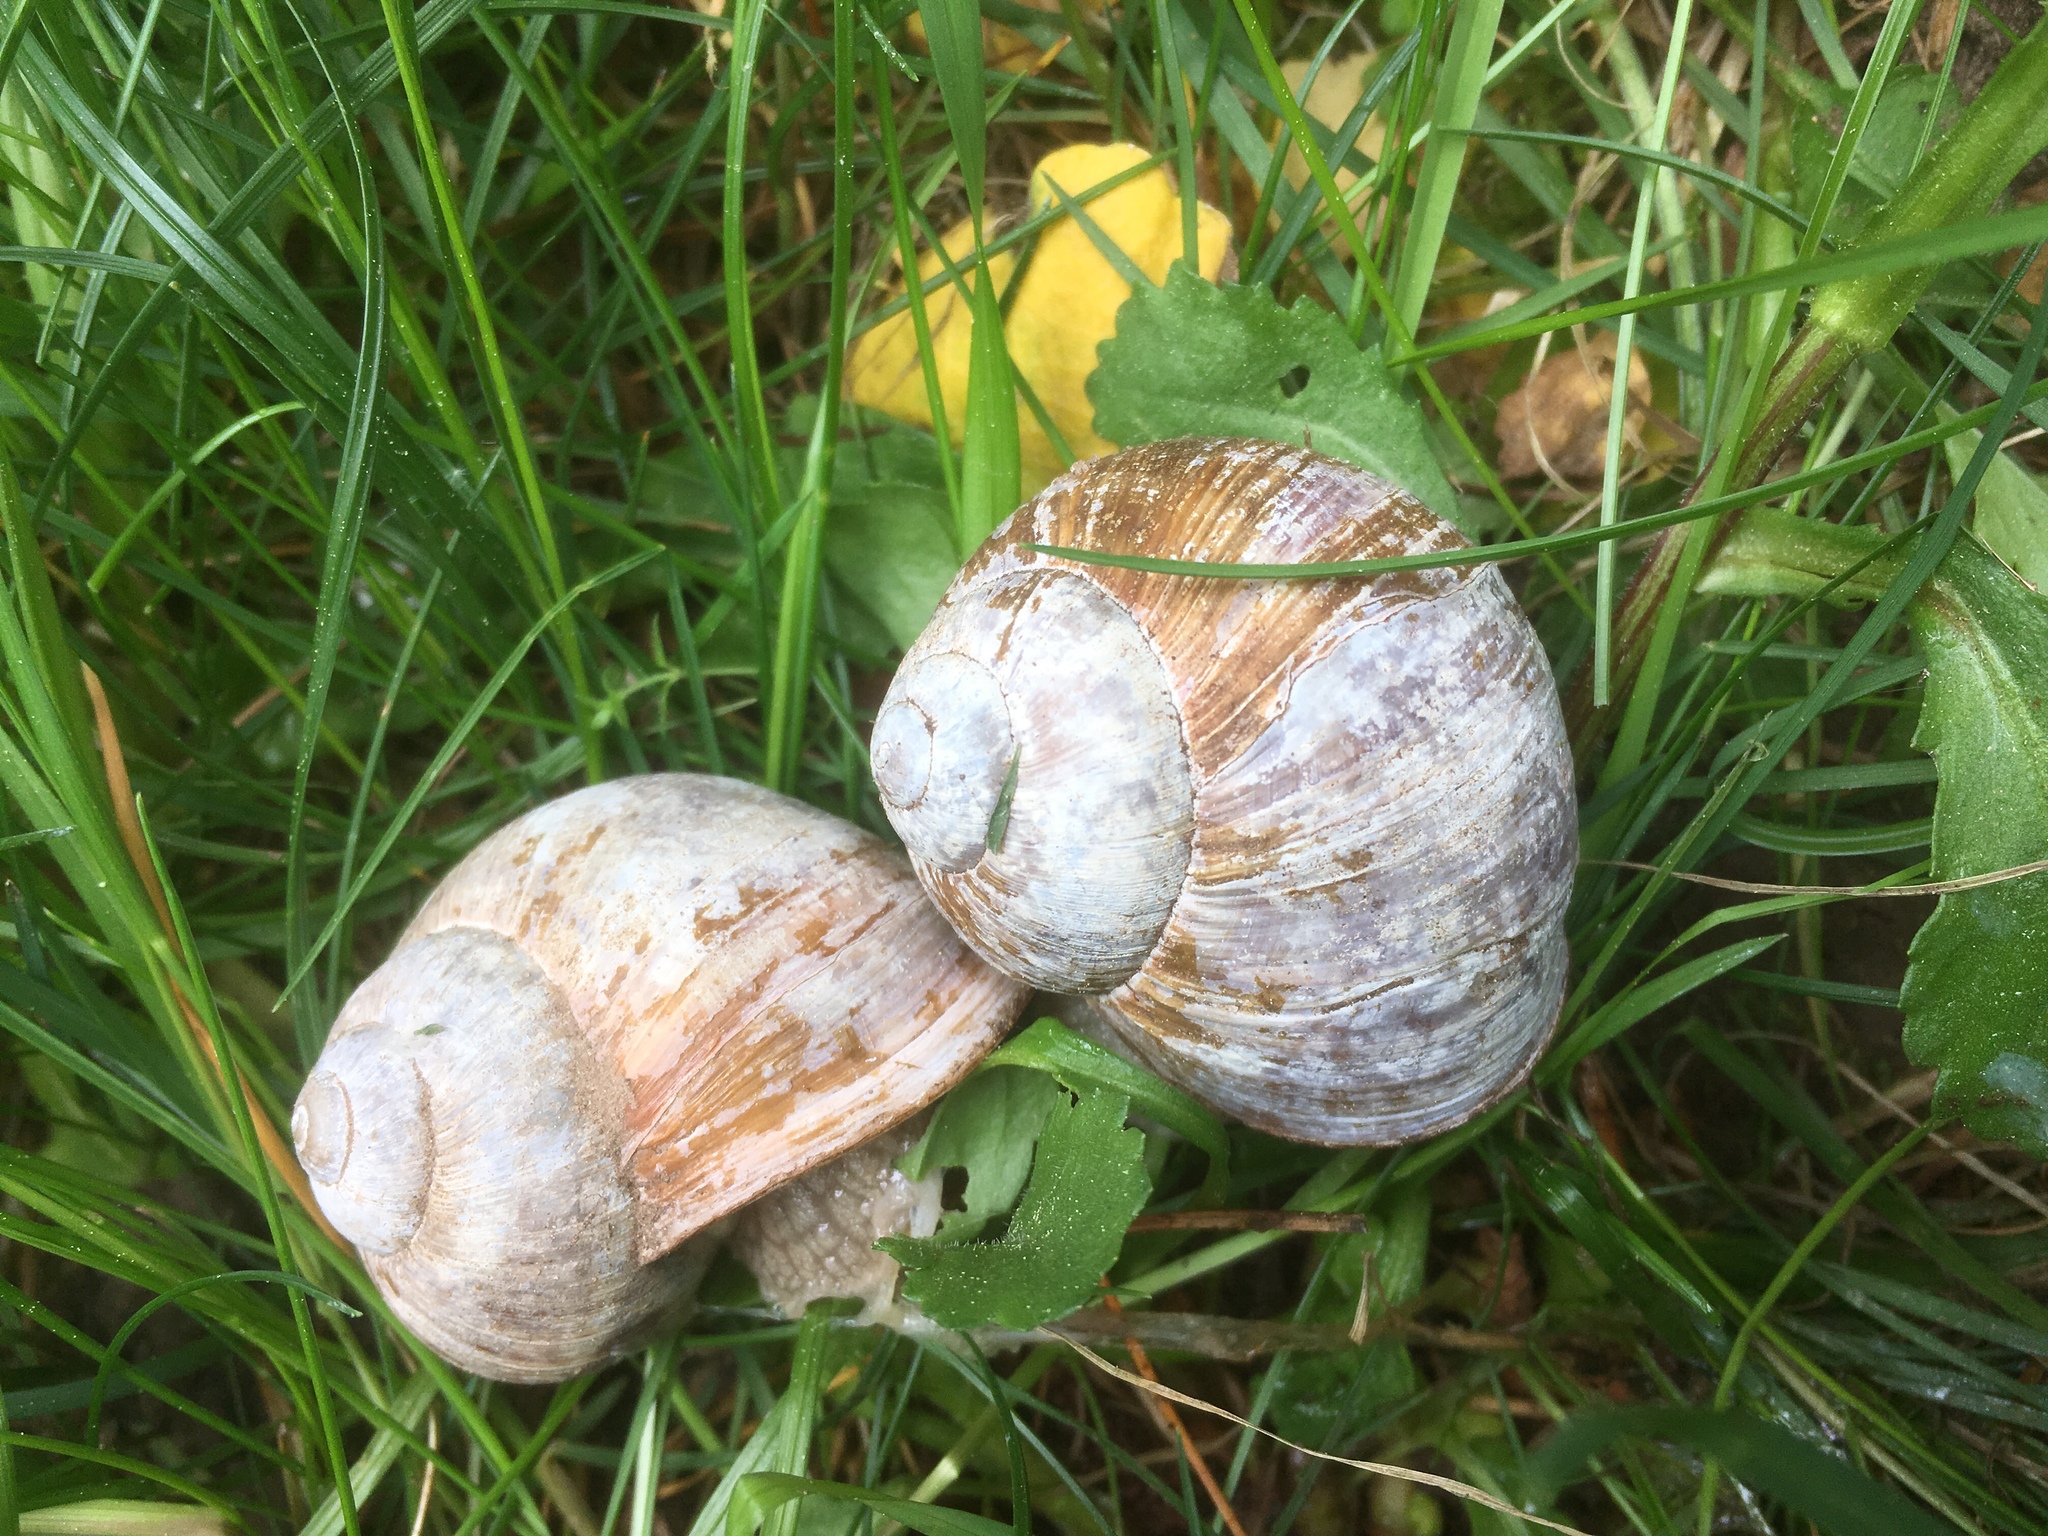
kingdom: Animalia
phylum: Mollusca
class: Gastropoda
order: Stylommatophora
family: Helicidae
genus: Helix
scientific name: Helix pomatia
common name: Roman snail
